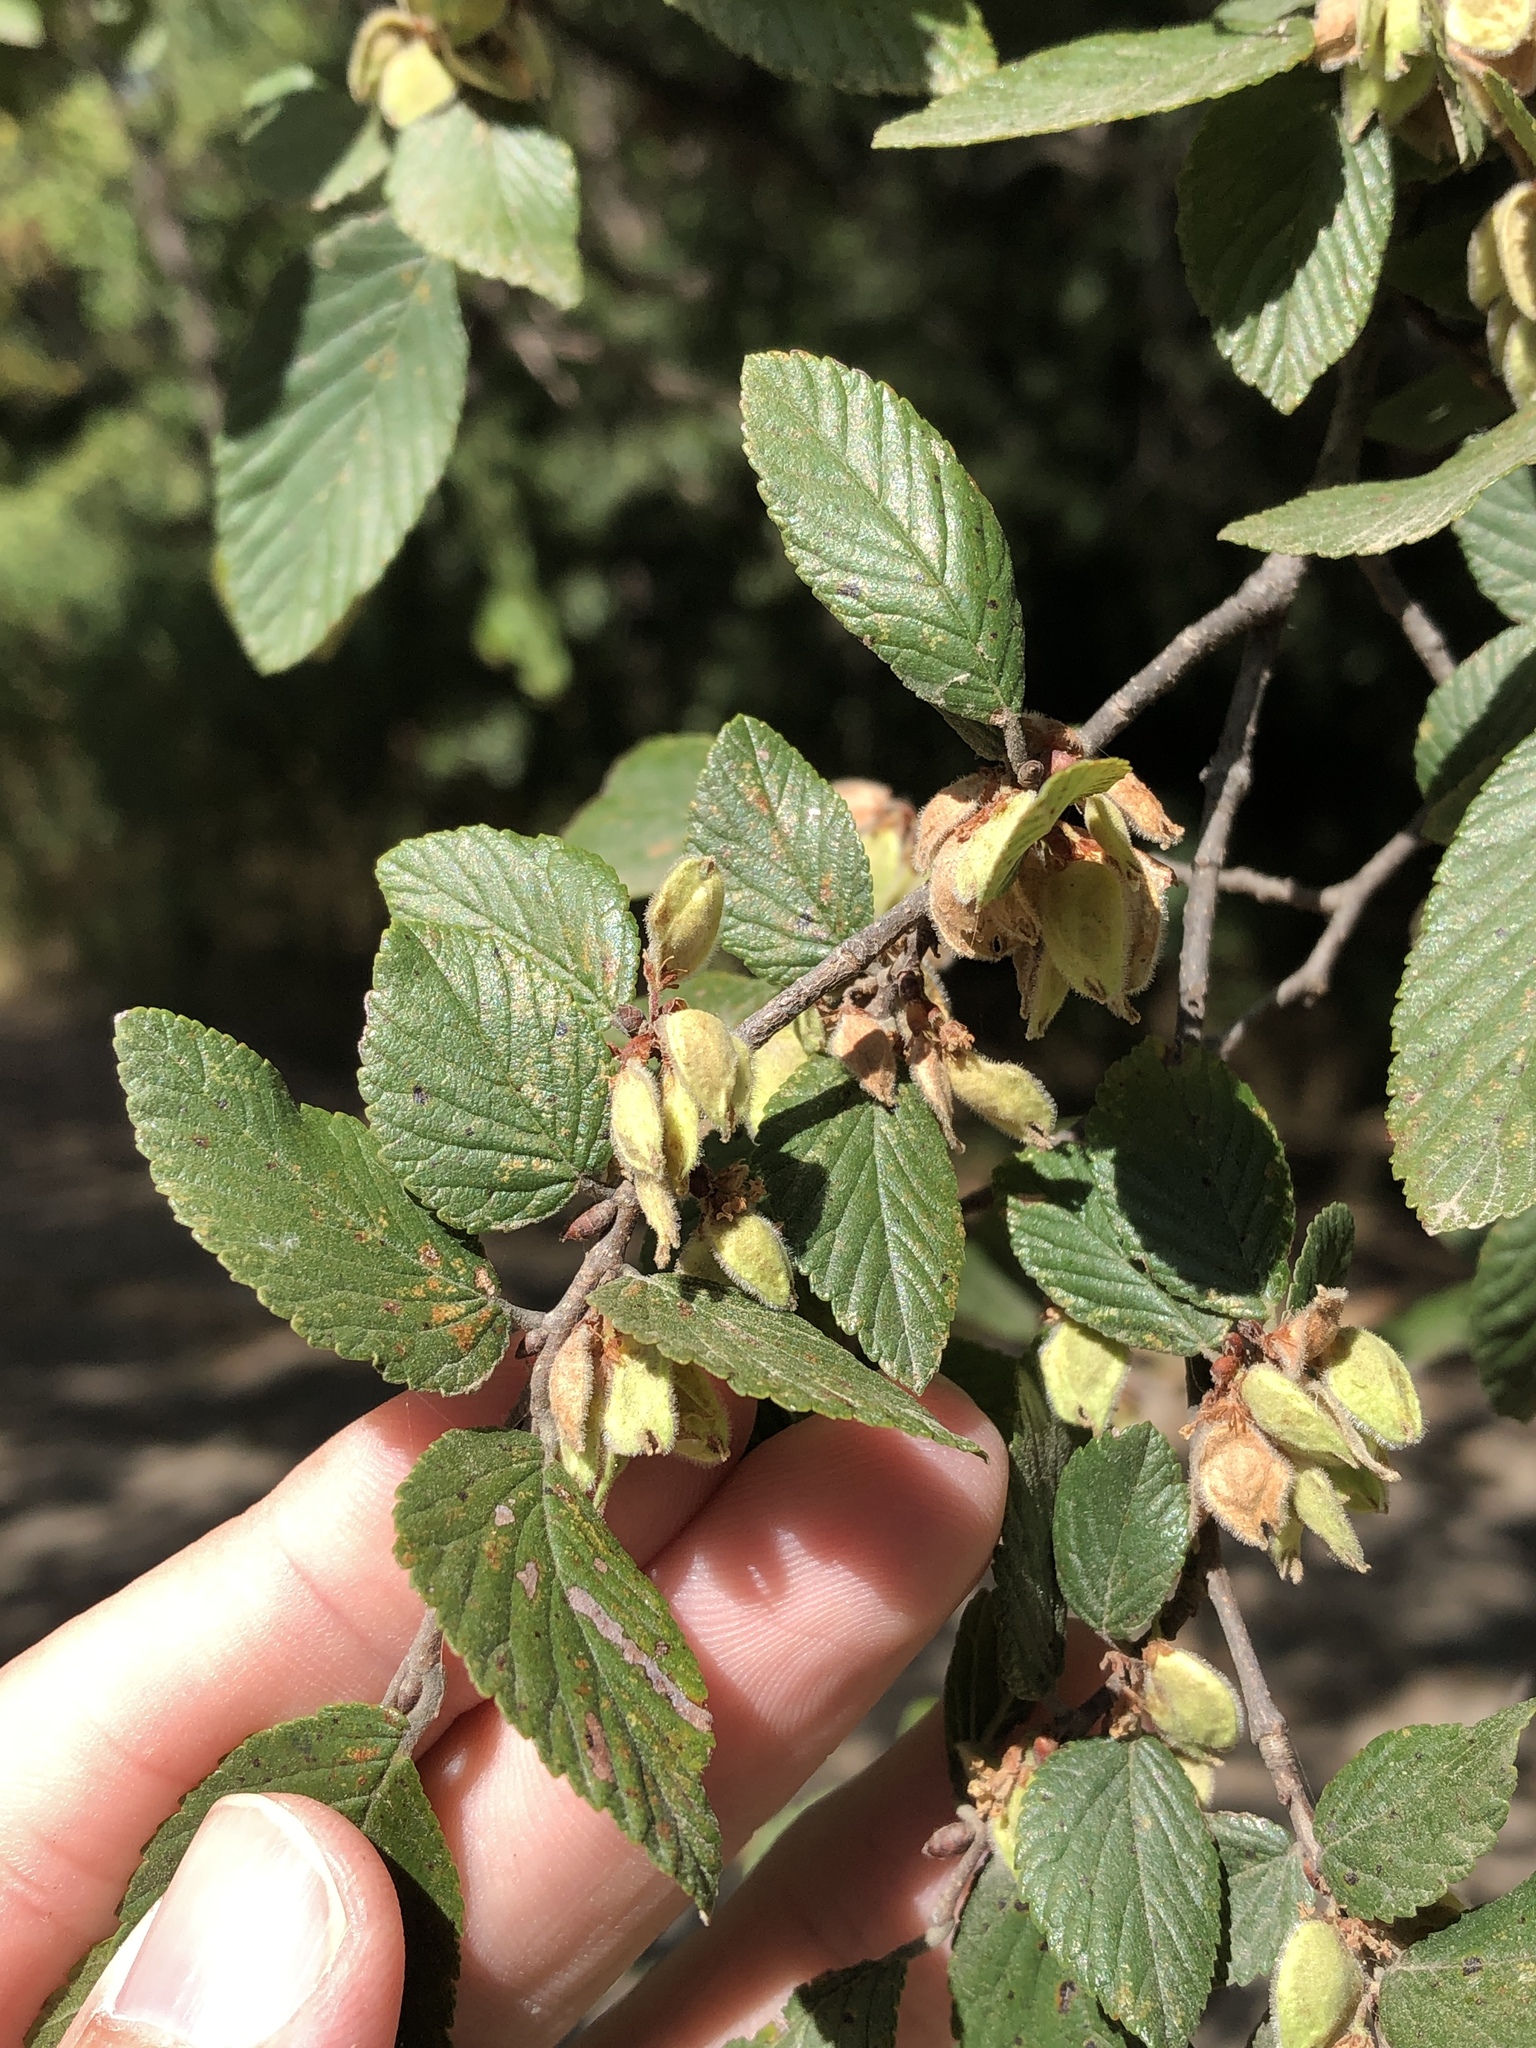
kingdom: Plantae
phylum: Tracheophyta
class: Magnoliopsida
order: Rosales
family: Ulmaceae
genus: Ulmus
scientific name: Ulmus crassifolia
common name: Basket elm
